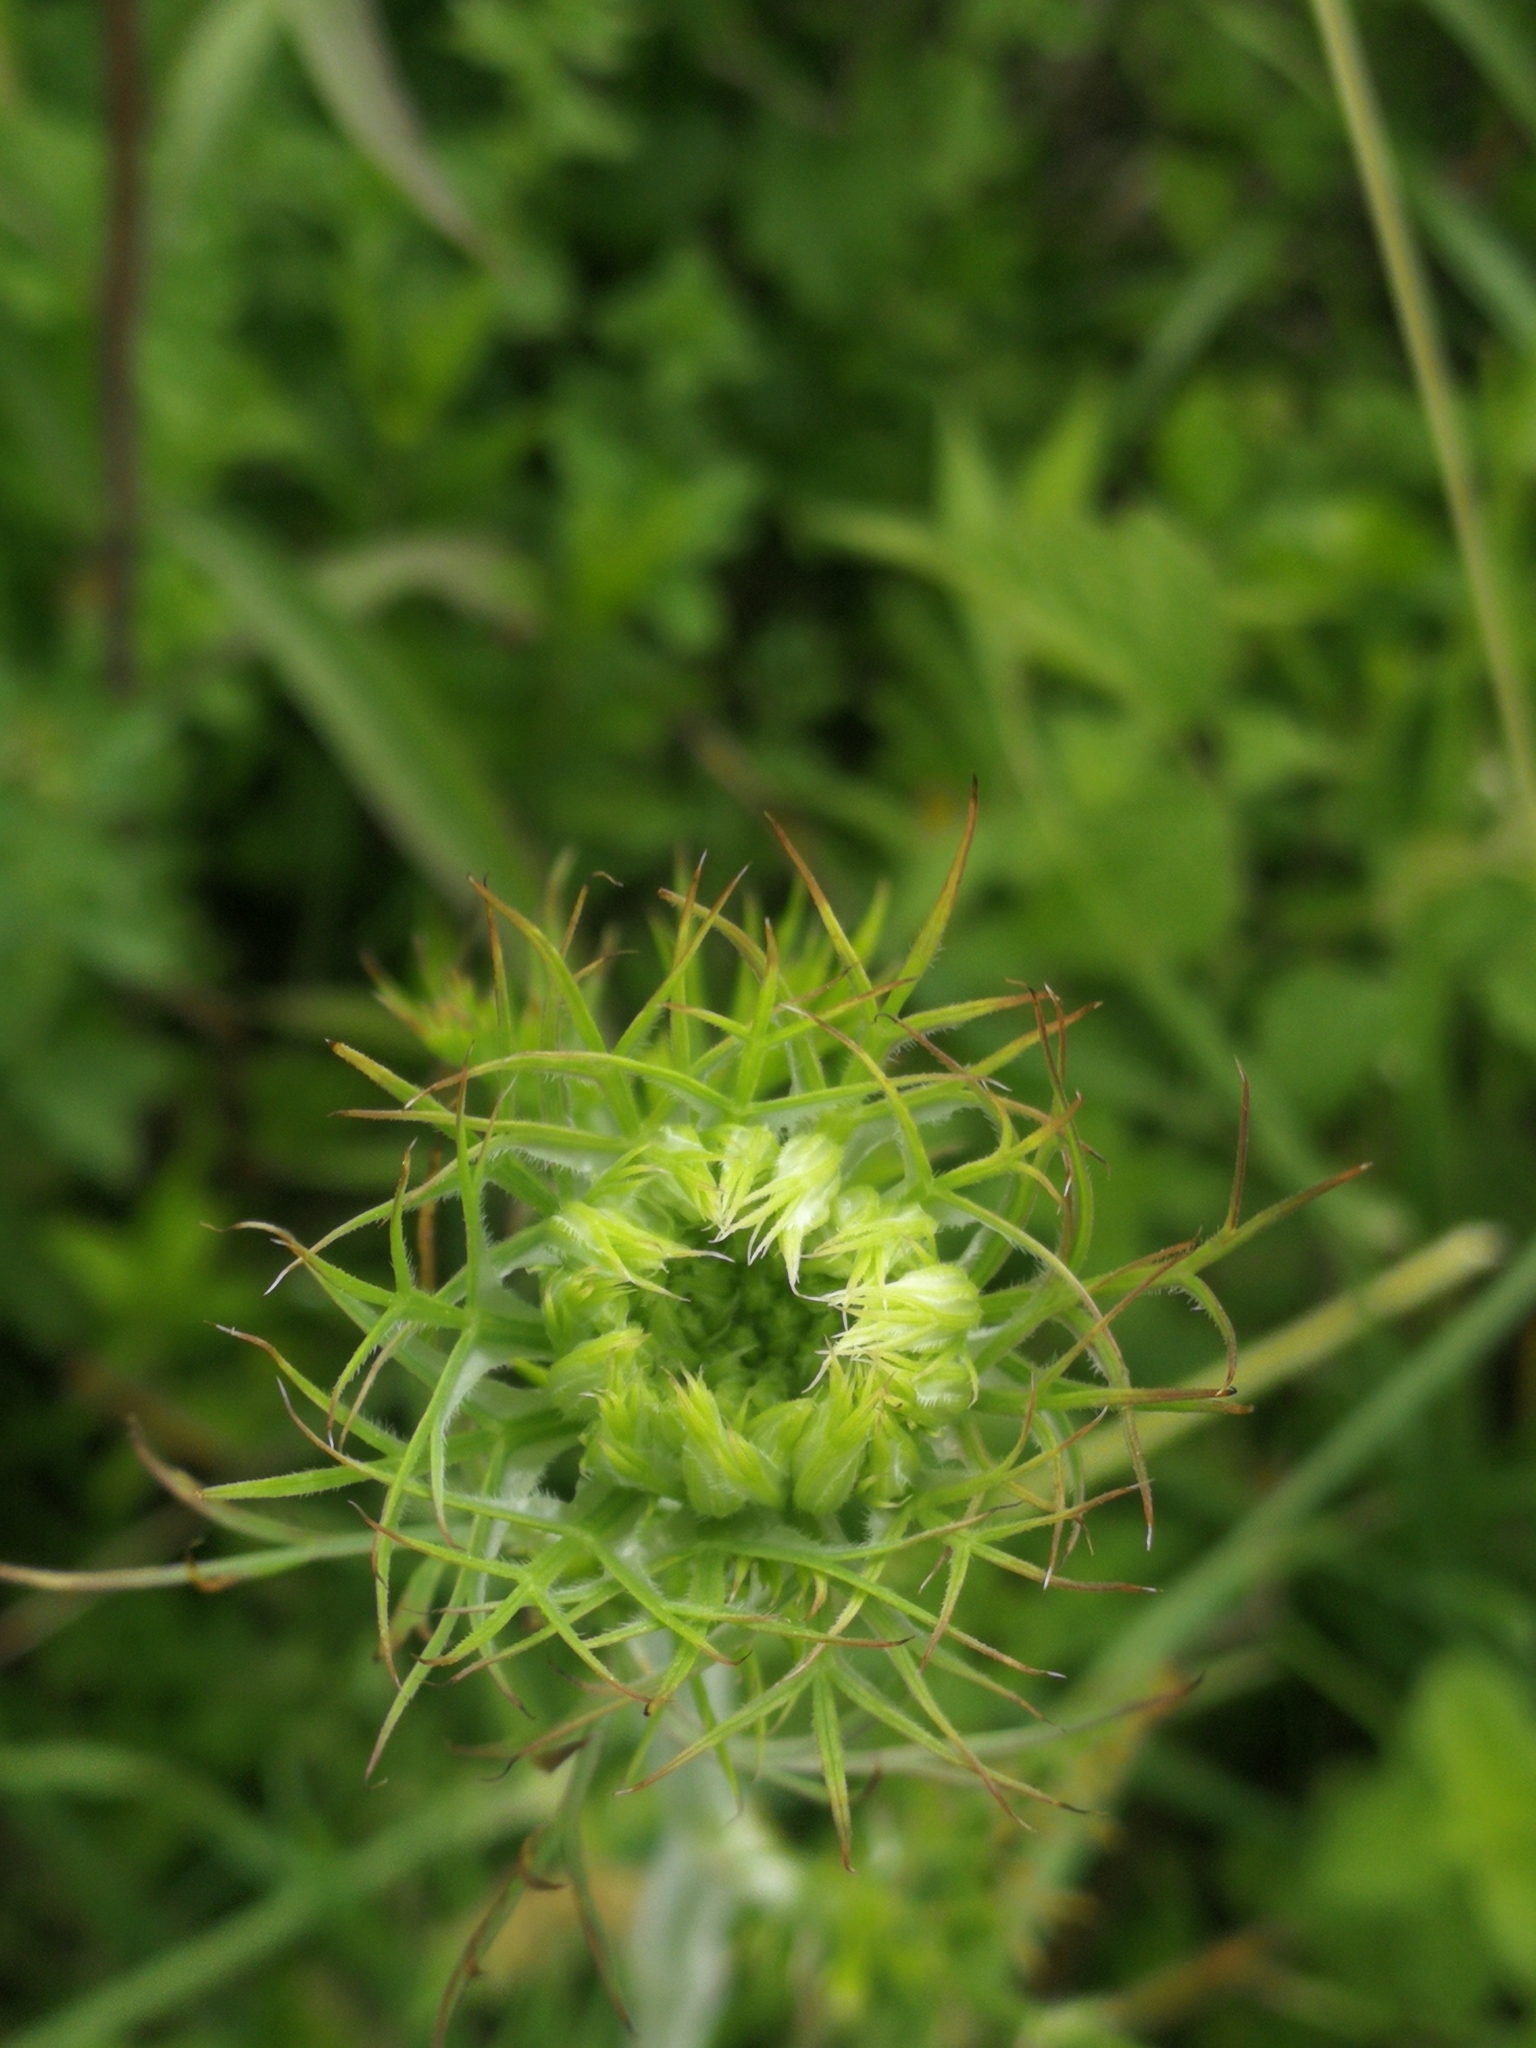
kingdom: Plantae
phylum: Tracheophyta
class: Magnoliopsida
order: Apiales
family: Apiaceae
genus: Daucus
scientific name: Daucus carota
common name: Wild carrot
